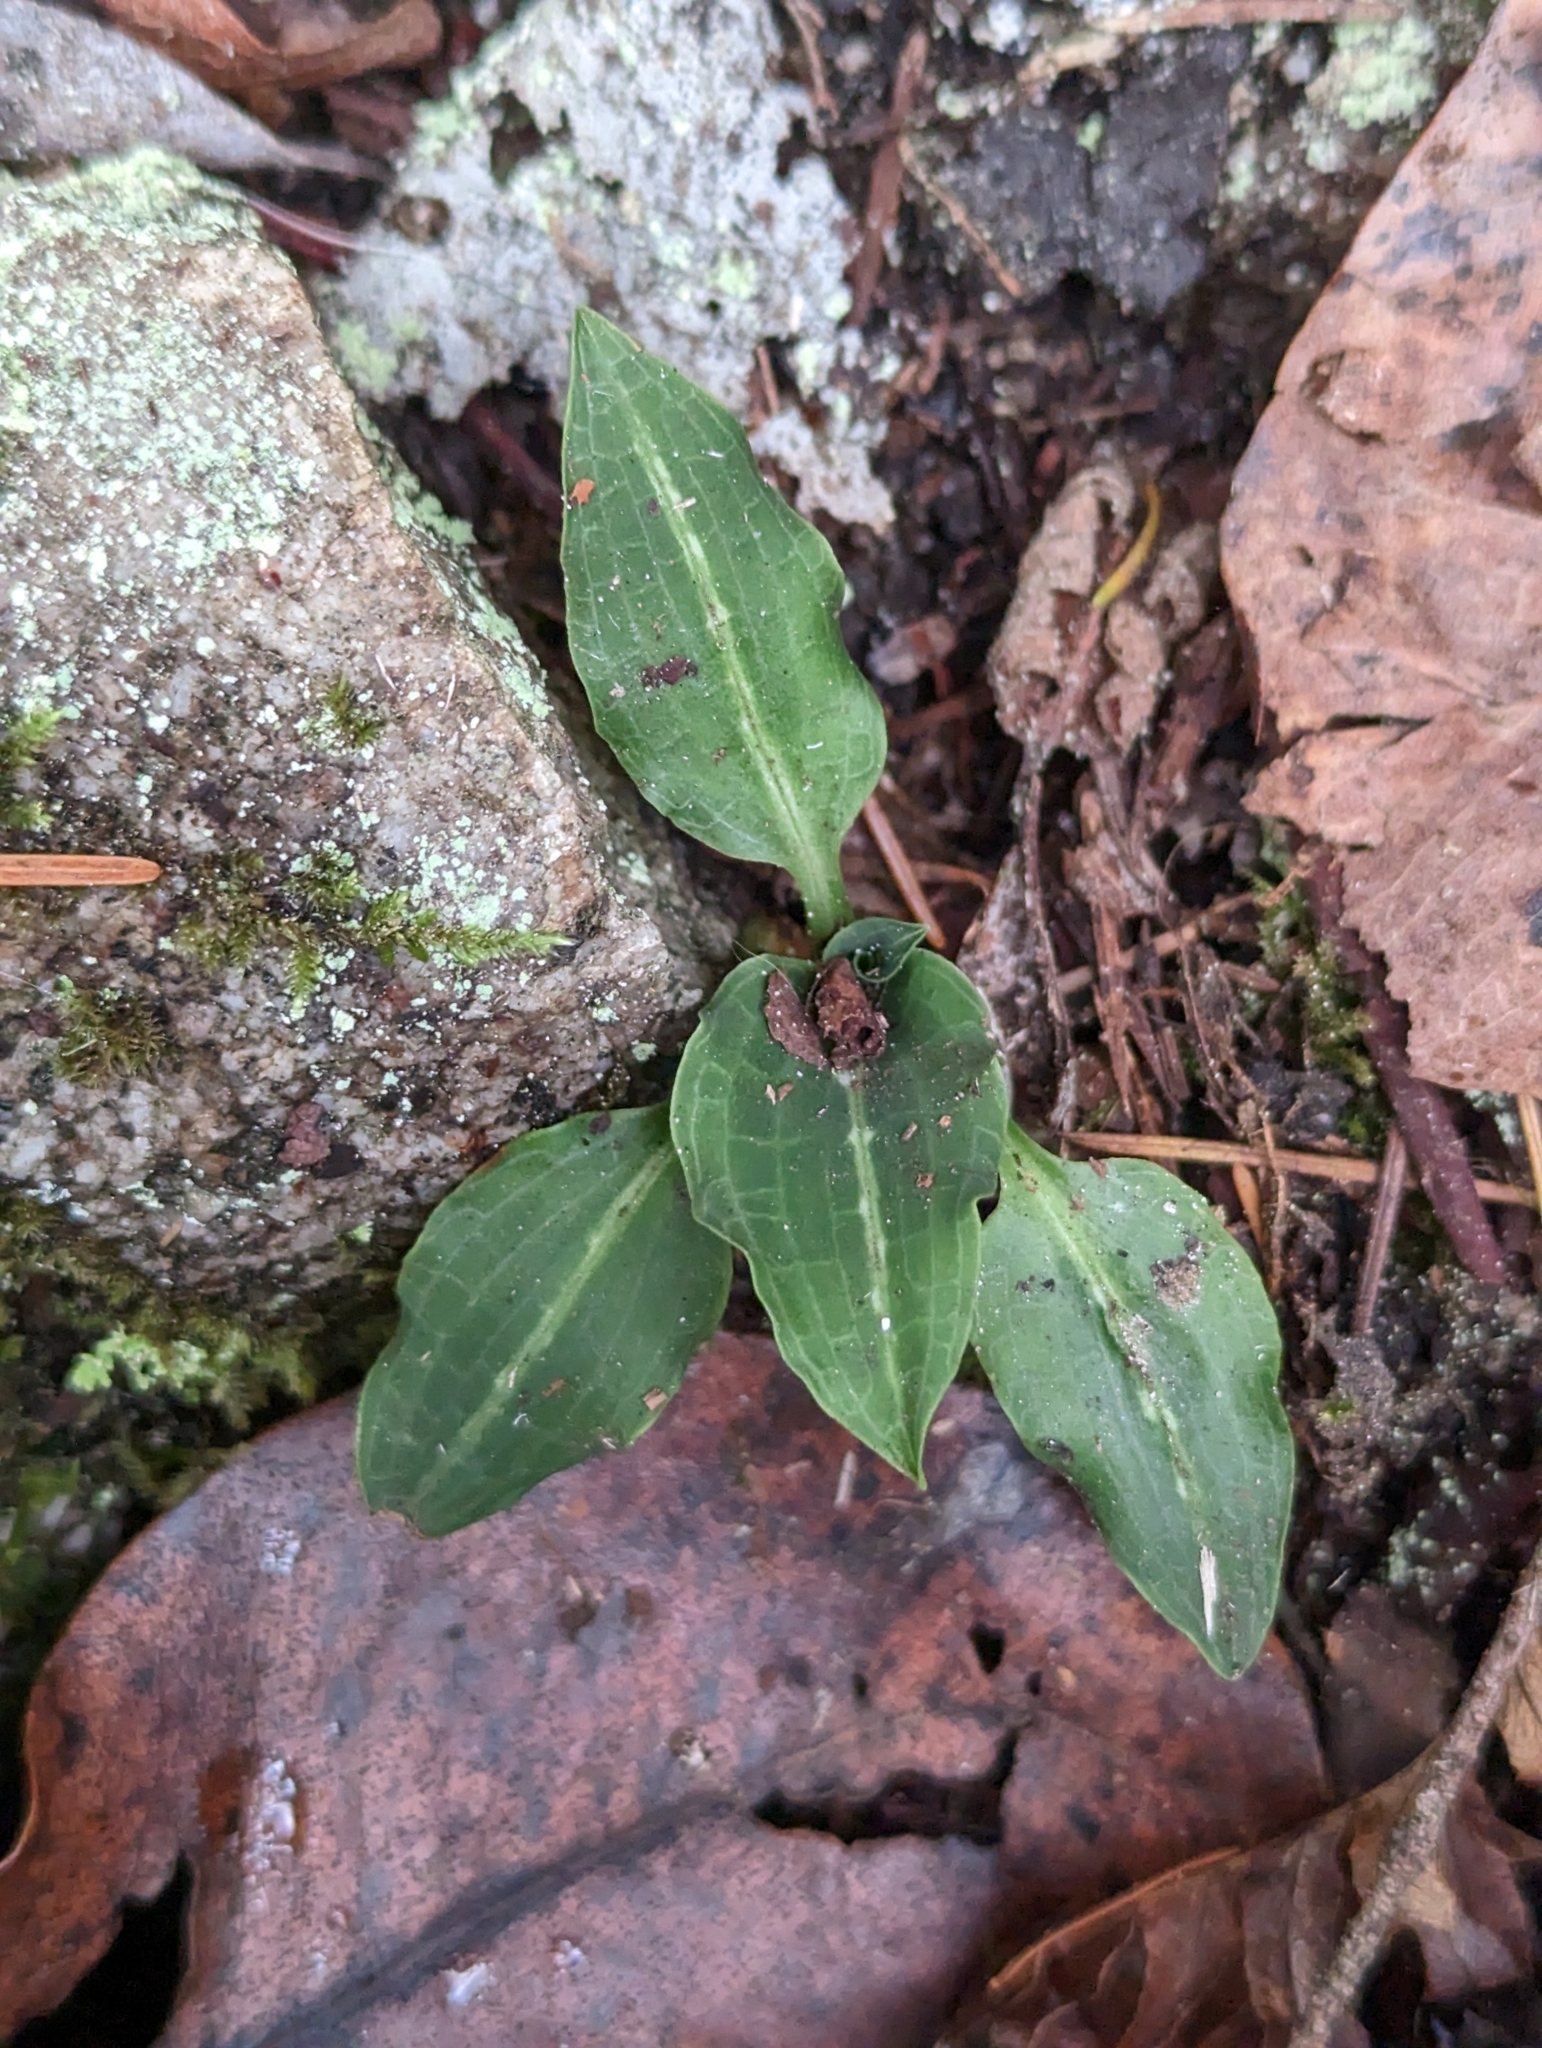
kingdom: Plantae
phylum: Tracheophyta
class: Liliopsida
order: Asparagales
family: Orchidaceae
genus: Goodyera
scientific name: Goodyera oblongifolia
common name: Giant rattlesnake-plantain
